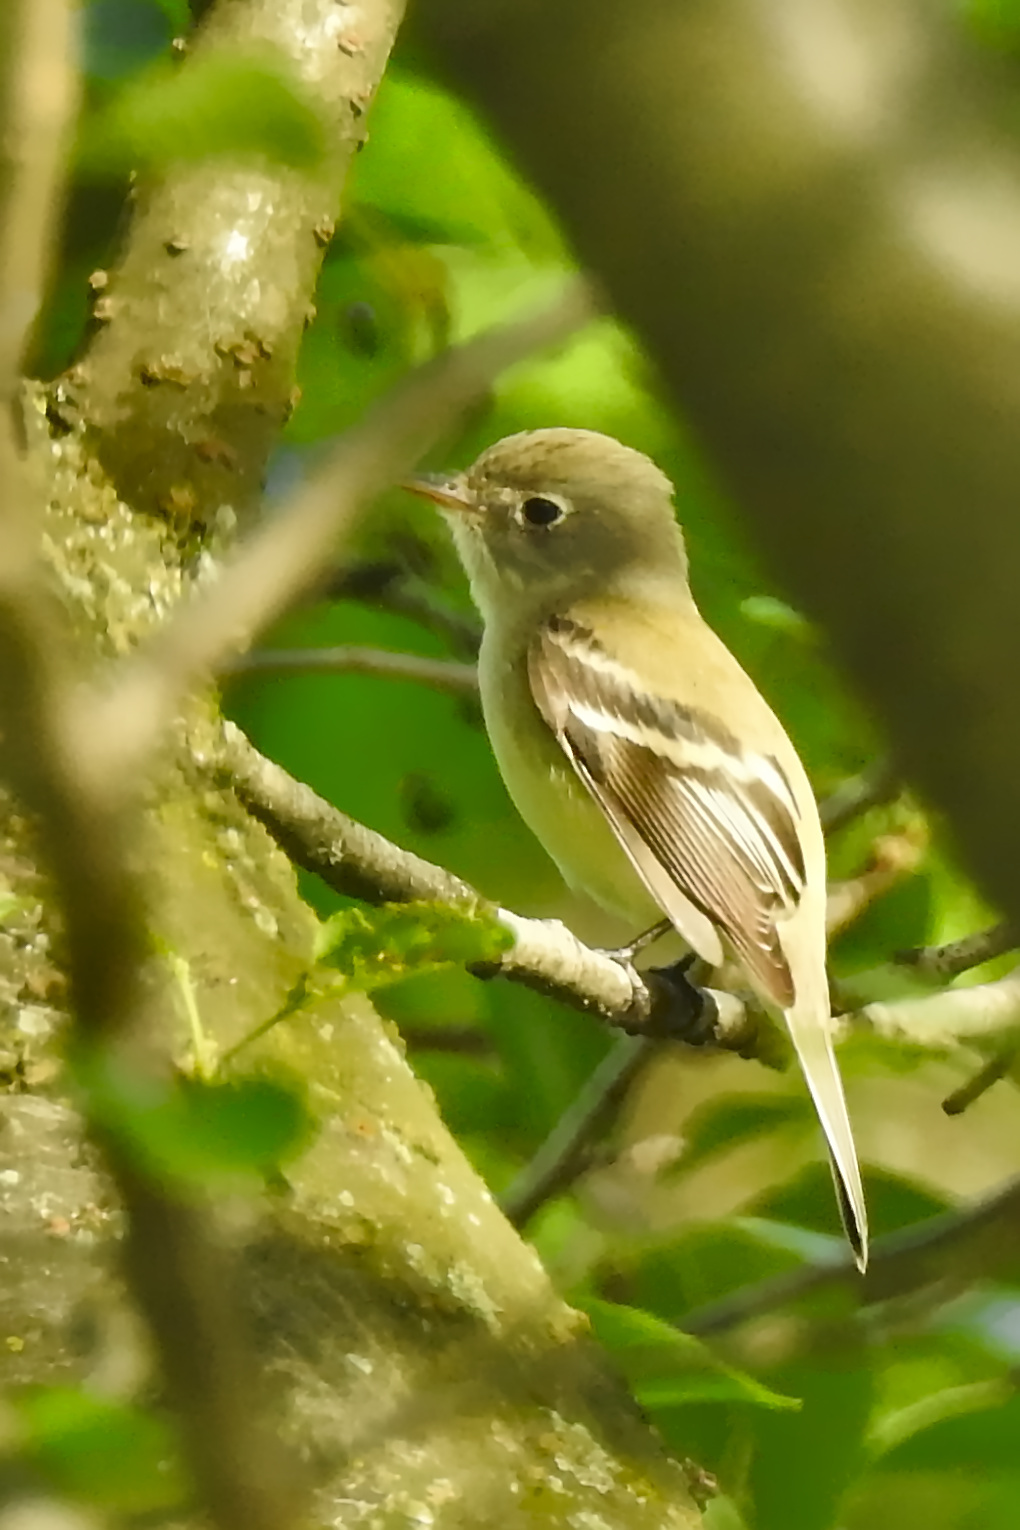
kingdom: Animalia
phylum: Chordata
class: Aves
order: Passeriformes
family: Tyrannidae
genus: Empidonax
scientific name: Empidonax minimus
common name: Least flycatcher
